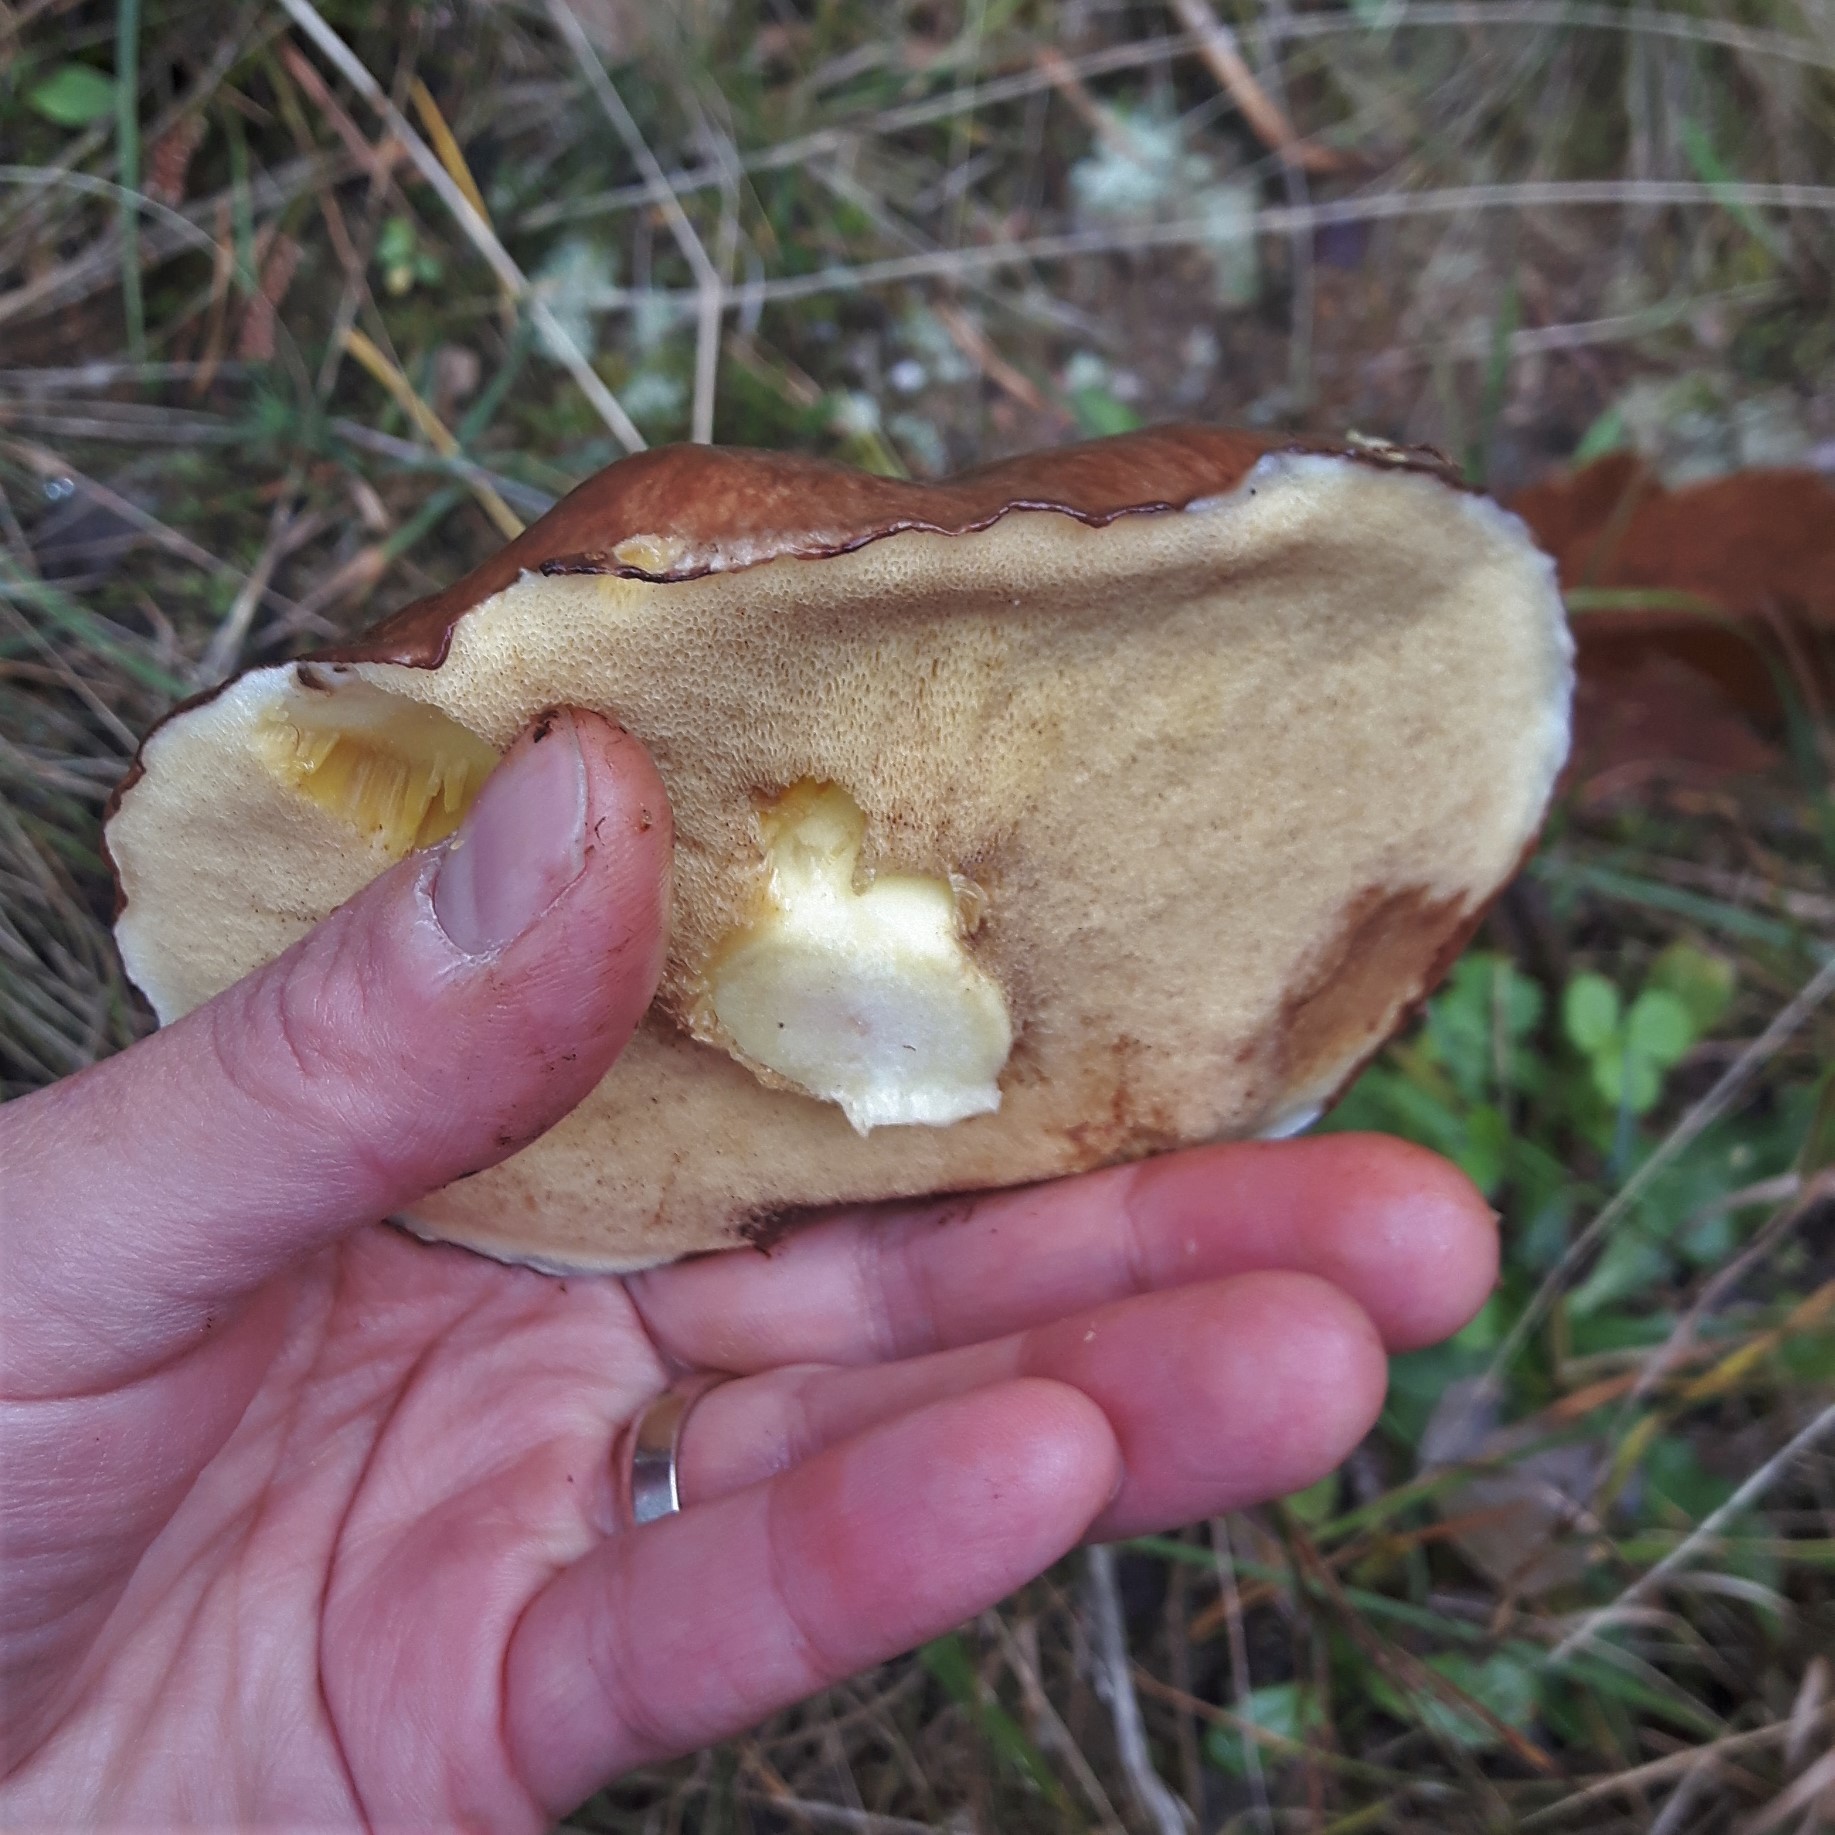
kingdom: Fungi
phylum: Basidiomycota
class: Agaricomycetes
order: Boletales
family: Suillaceae
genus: Suillus
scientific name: Suillus luteus
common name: Slippery jack
